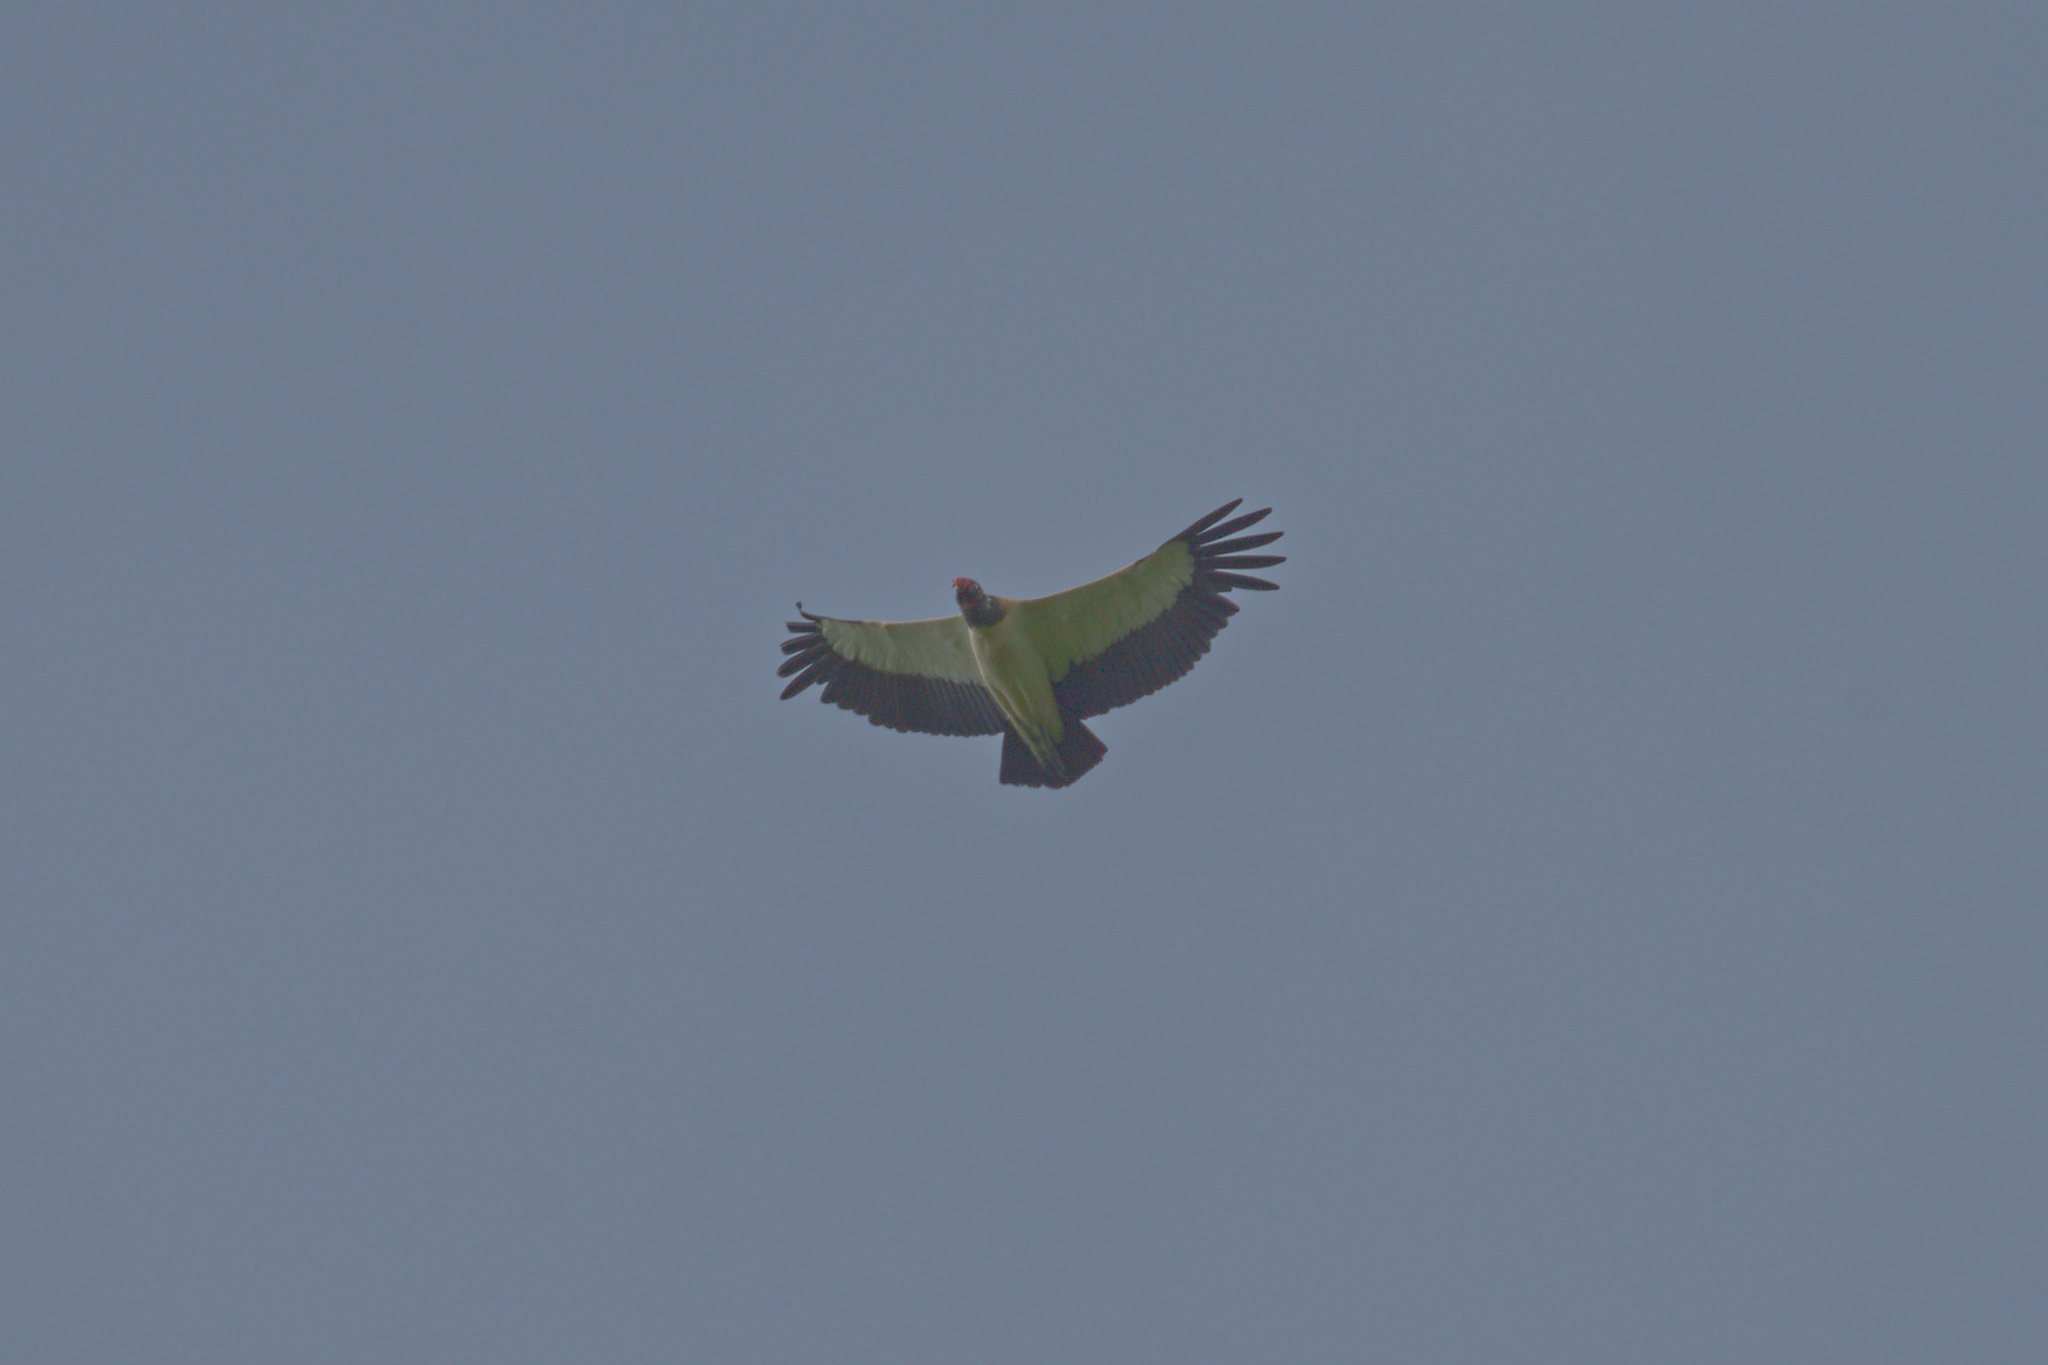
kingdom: Animalia
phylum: Chordata
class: Aves
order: Accipitriformes
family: Cathartidae
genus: Sarcoramphus
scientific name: Sarcoramphus papa
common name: King vulture
